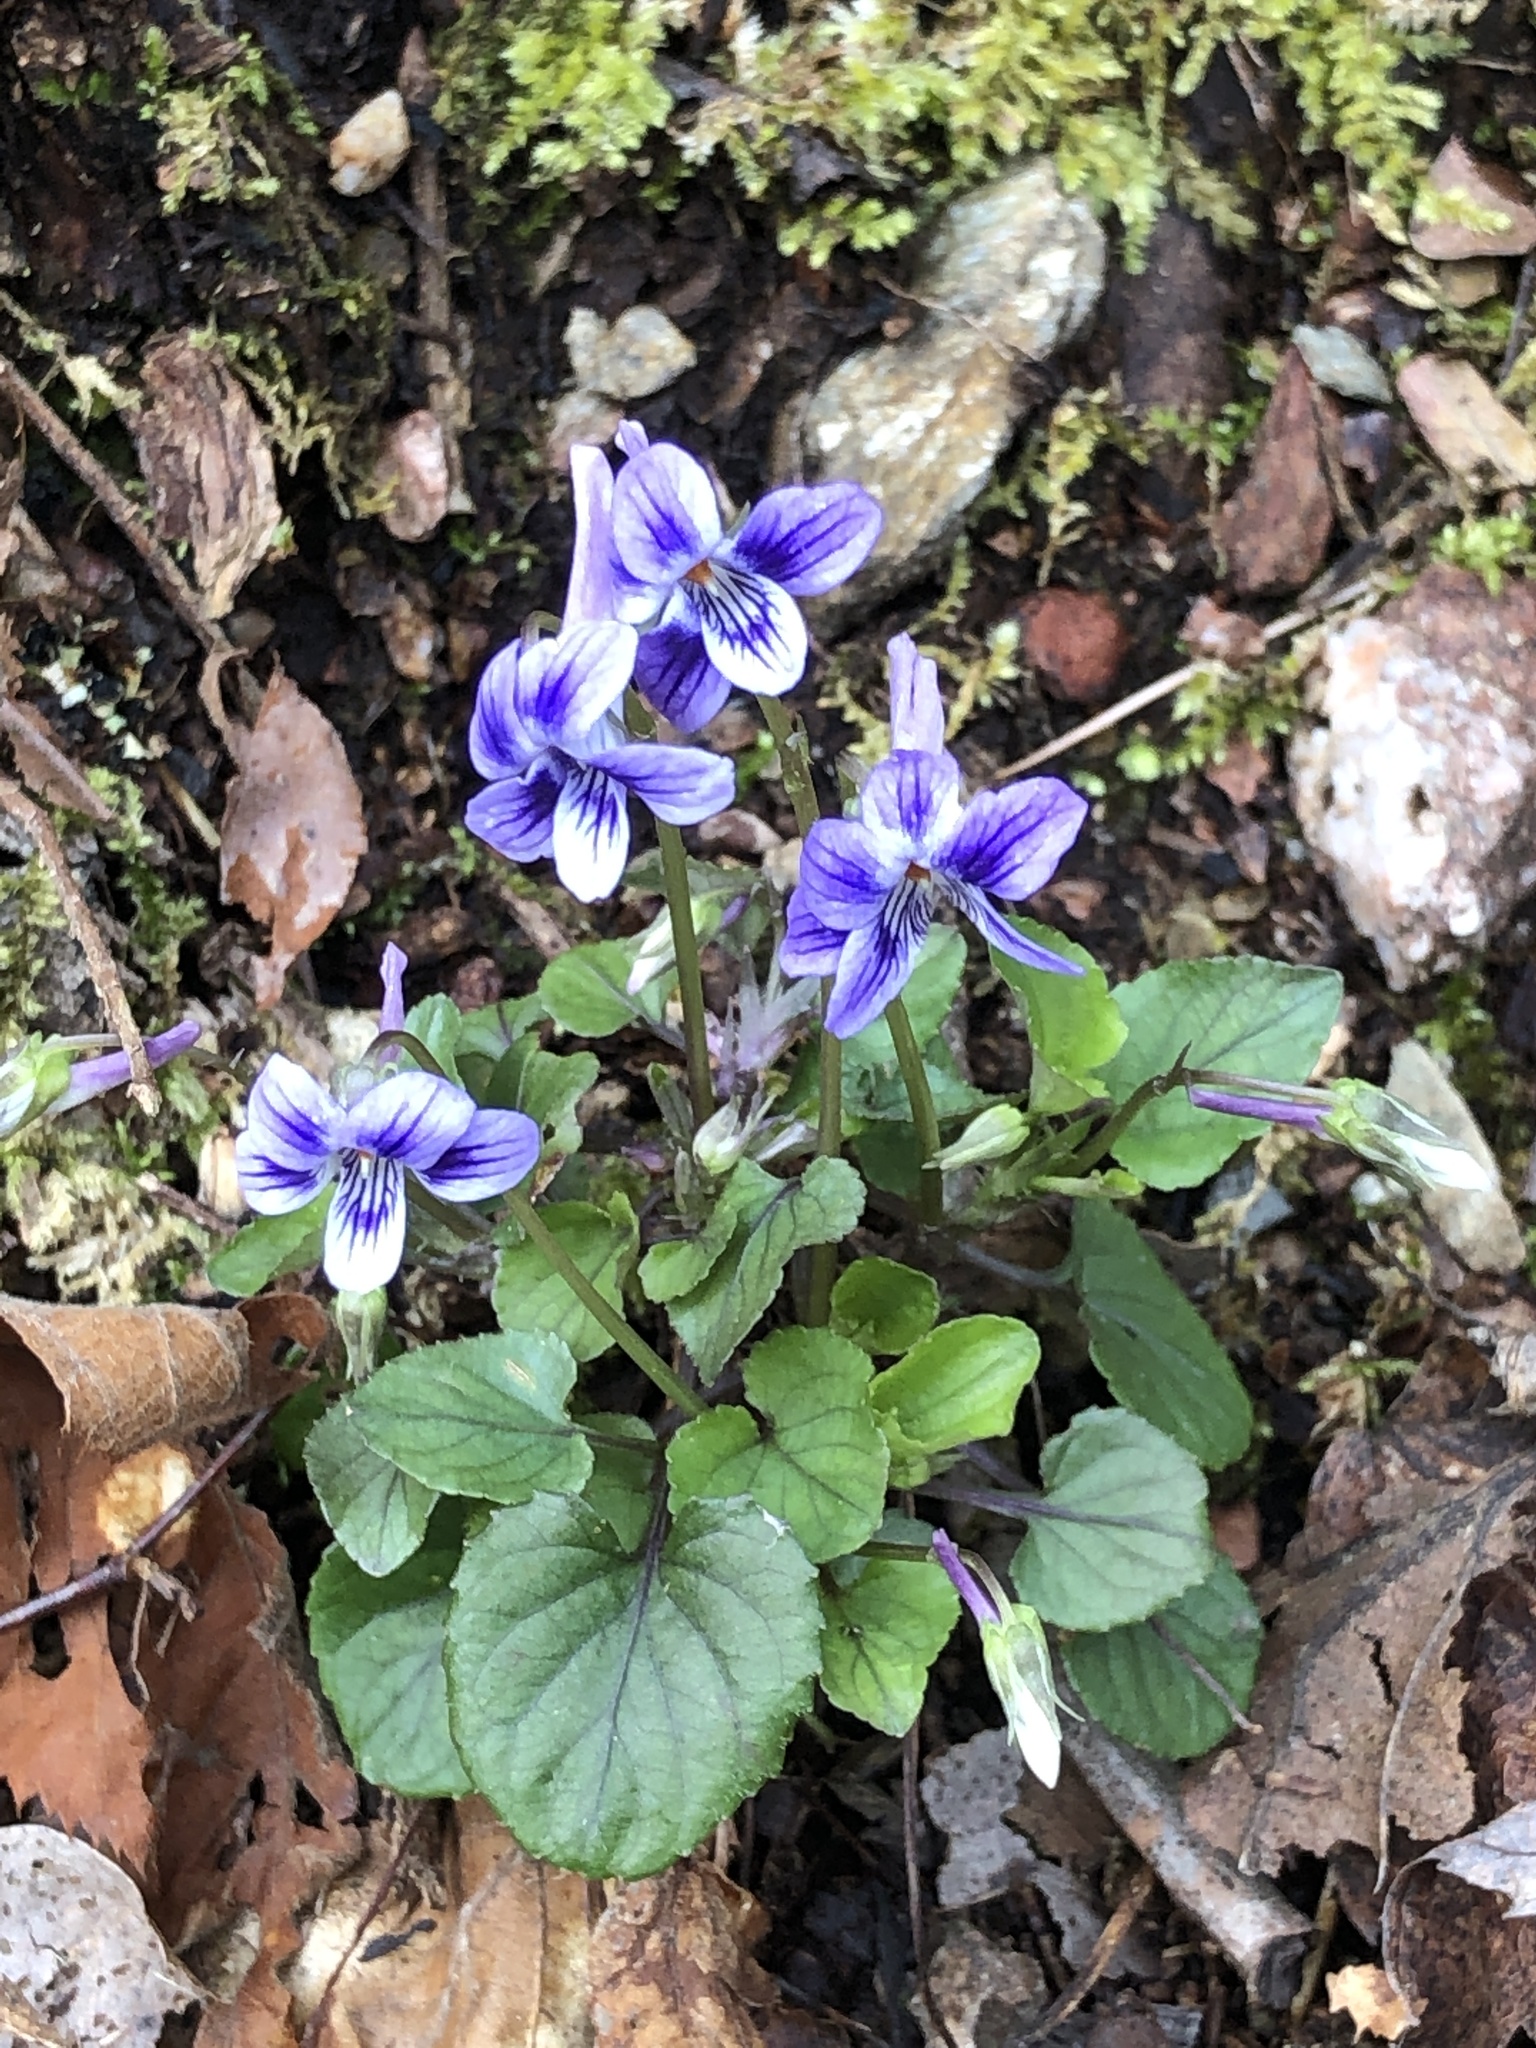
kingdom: Plantae
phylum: Tracheophyta
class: Magnoliopsida
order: Malpighiales
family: Violaceae
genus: Viola
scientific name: Viola rostrata
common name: Long-spur violet
